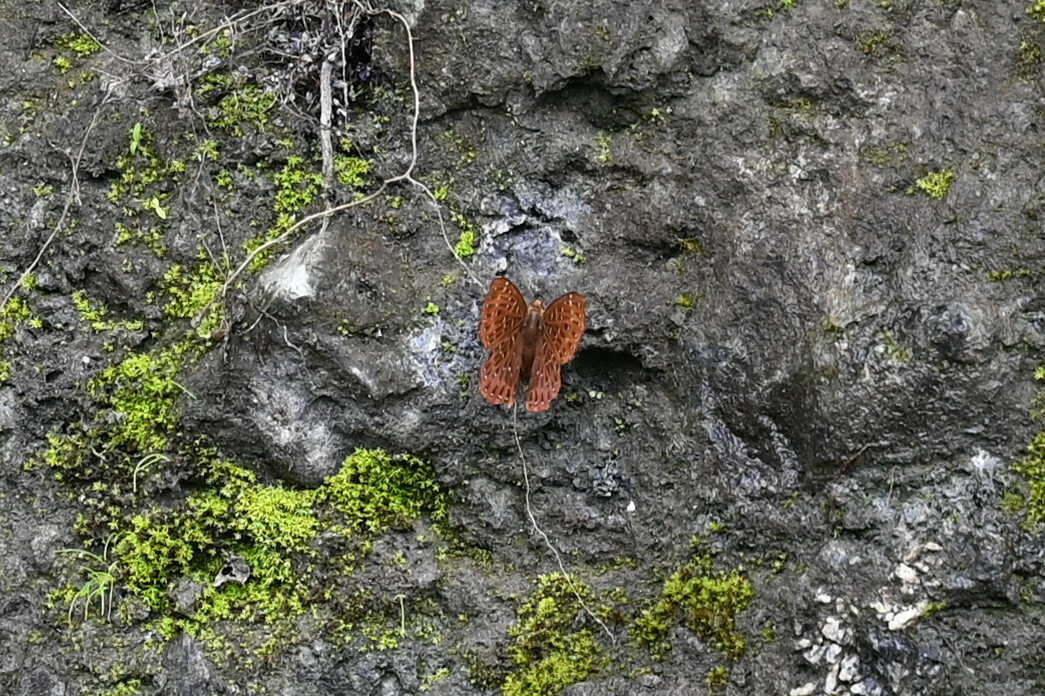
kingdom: Animalia
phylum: Arthropoda
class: Insecta
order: Lepidoptera
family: Riodinidae
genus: Zemeros
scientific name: Zemeros flegyas
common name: Punchinello
